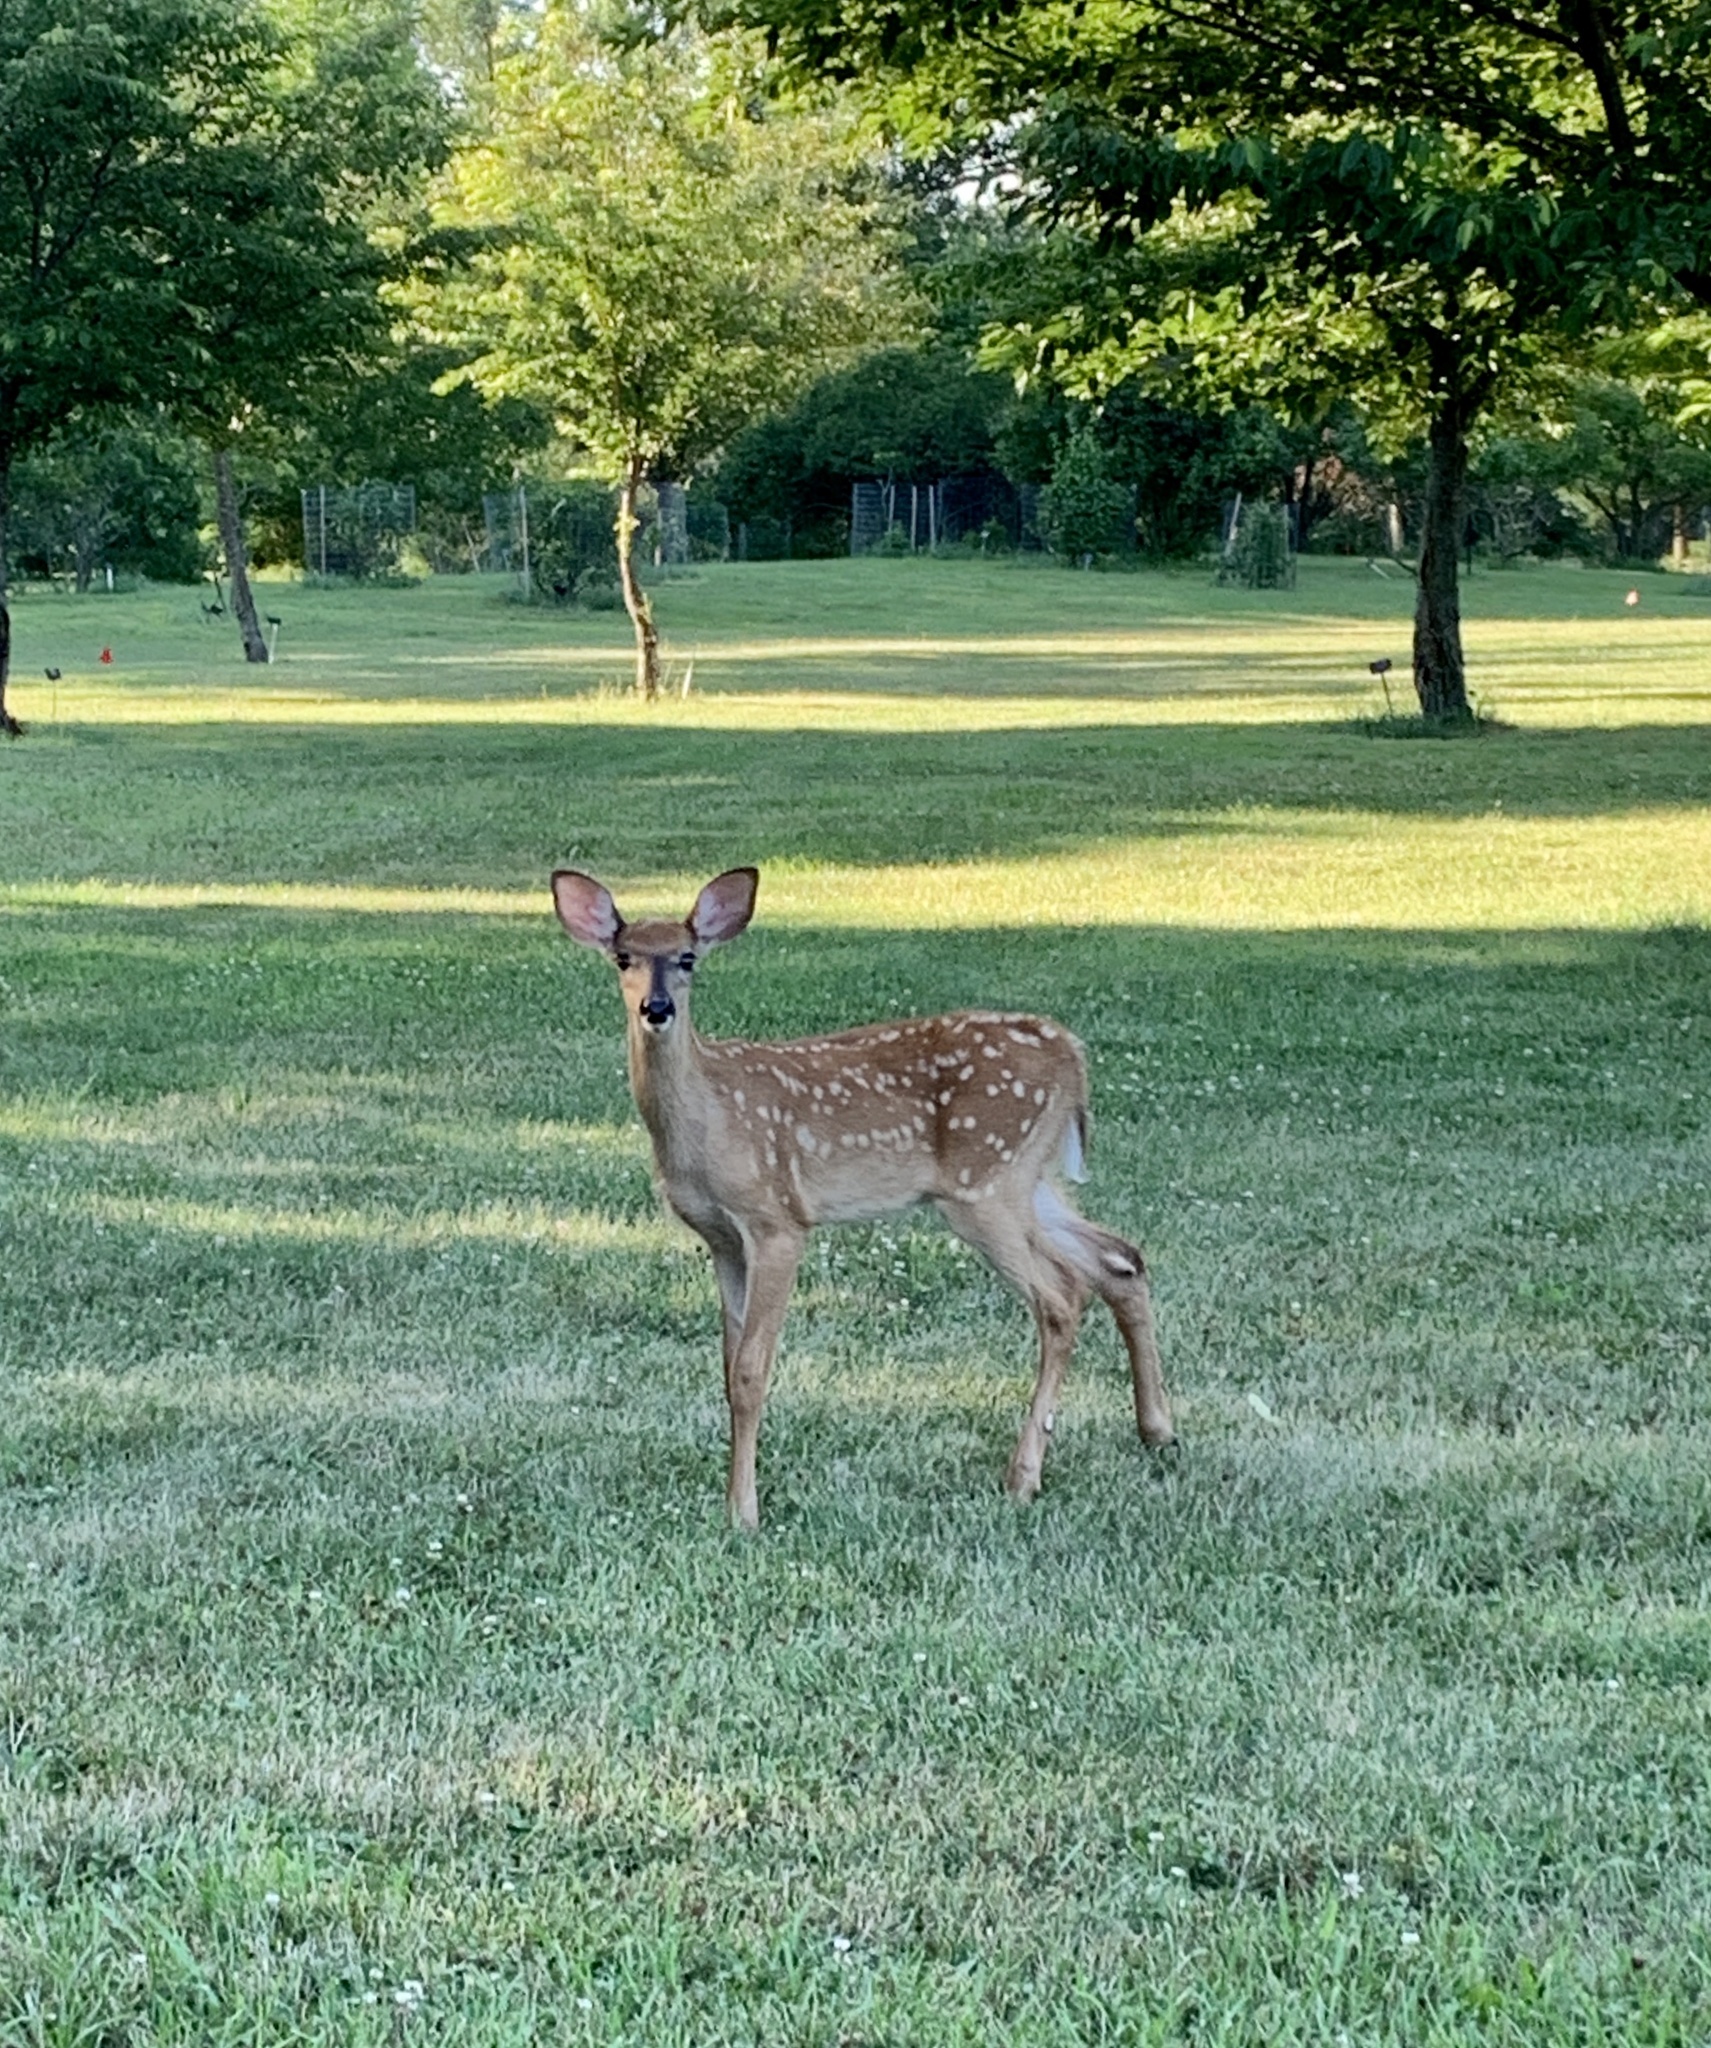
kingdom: Animalia
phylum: Chordata
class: Mammalia
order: Artiodactyla
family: Cervidae
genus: Odocoileus
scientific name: Odocoileus virginianus
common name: White-tailed deer
